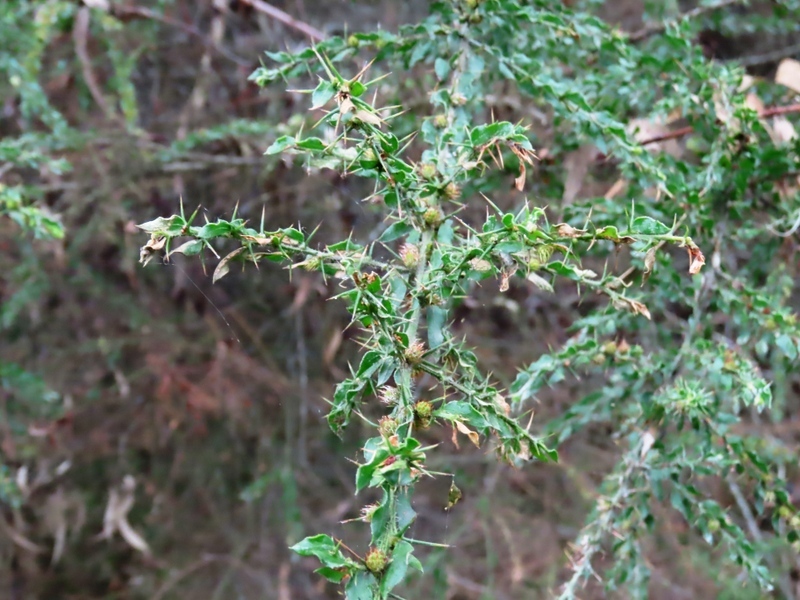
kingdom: Plantae
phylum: Tracheophyta
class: Magnoliopsida
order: Fabales
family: Fabaceae
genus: Acacia
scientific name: Acacia paradoxa
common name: Paradox acacia
